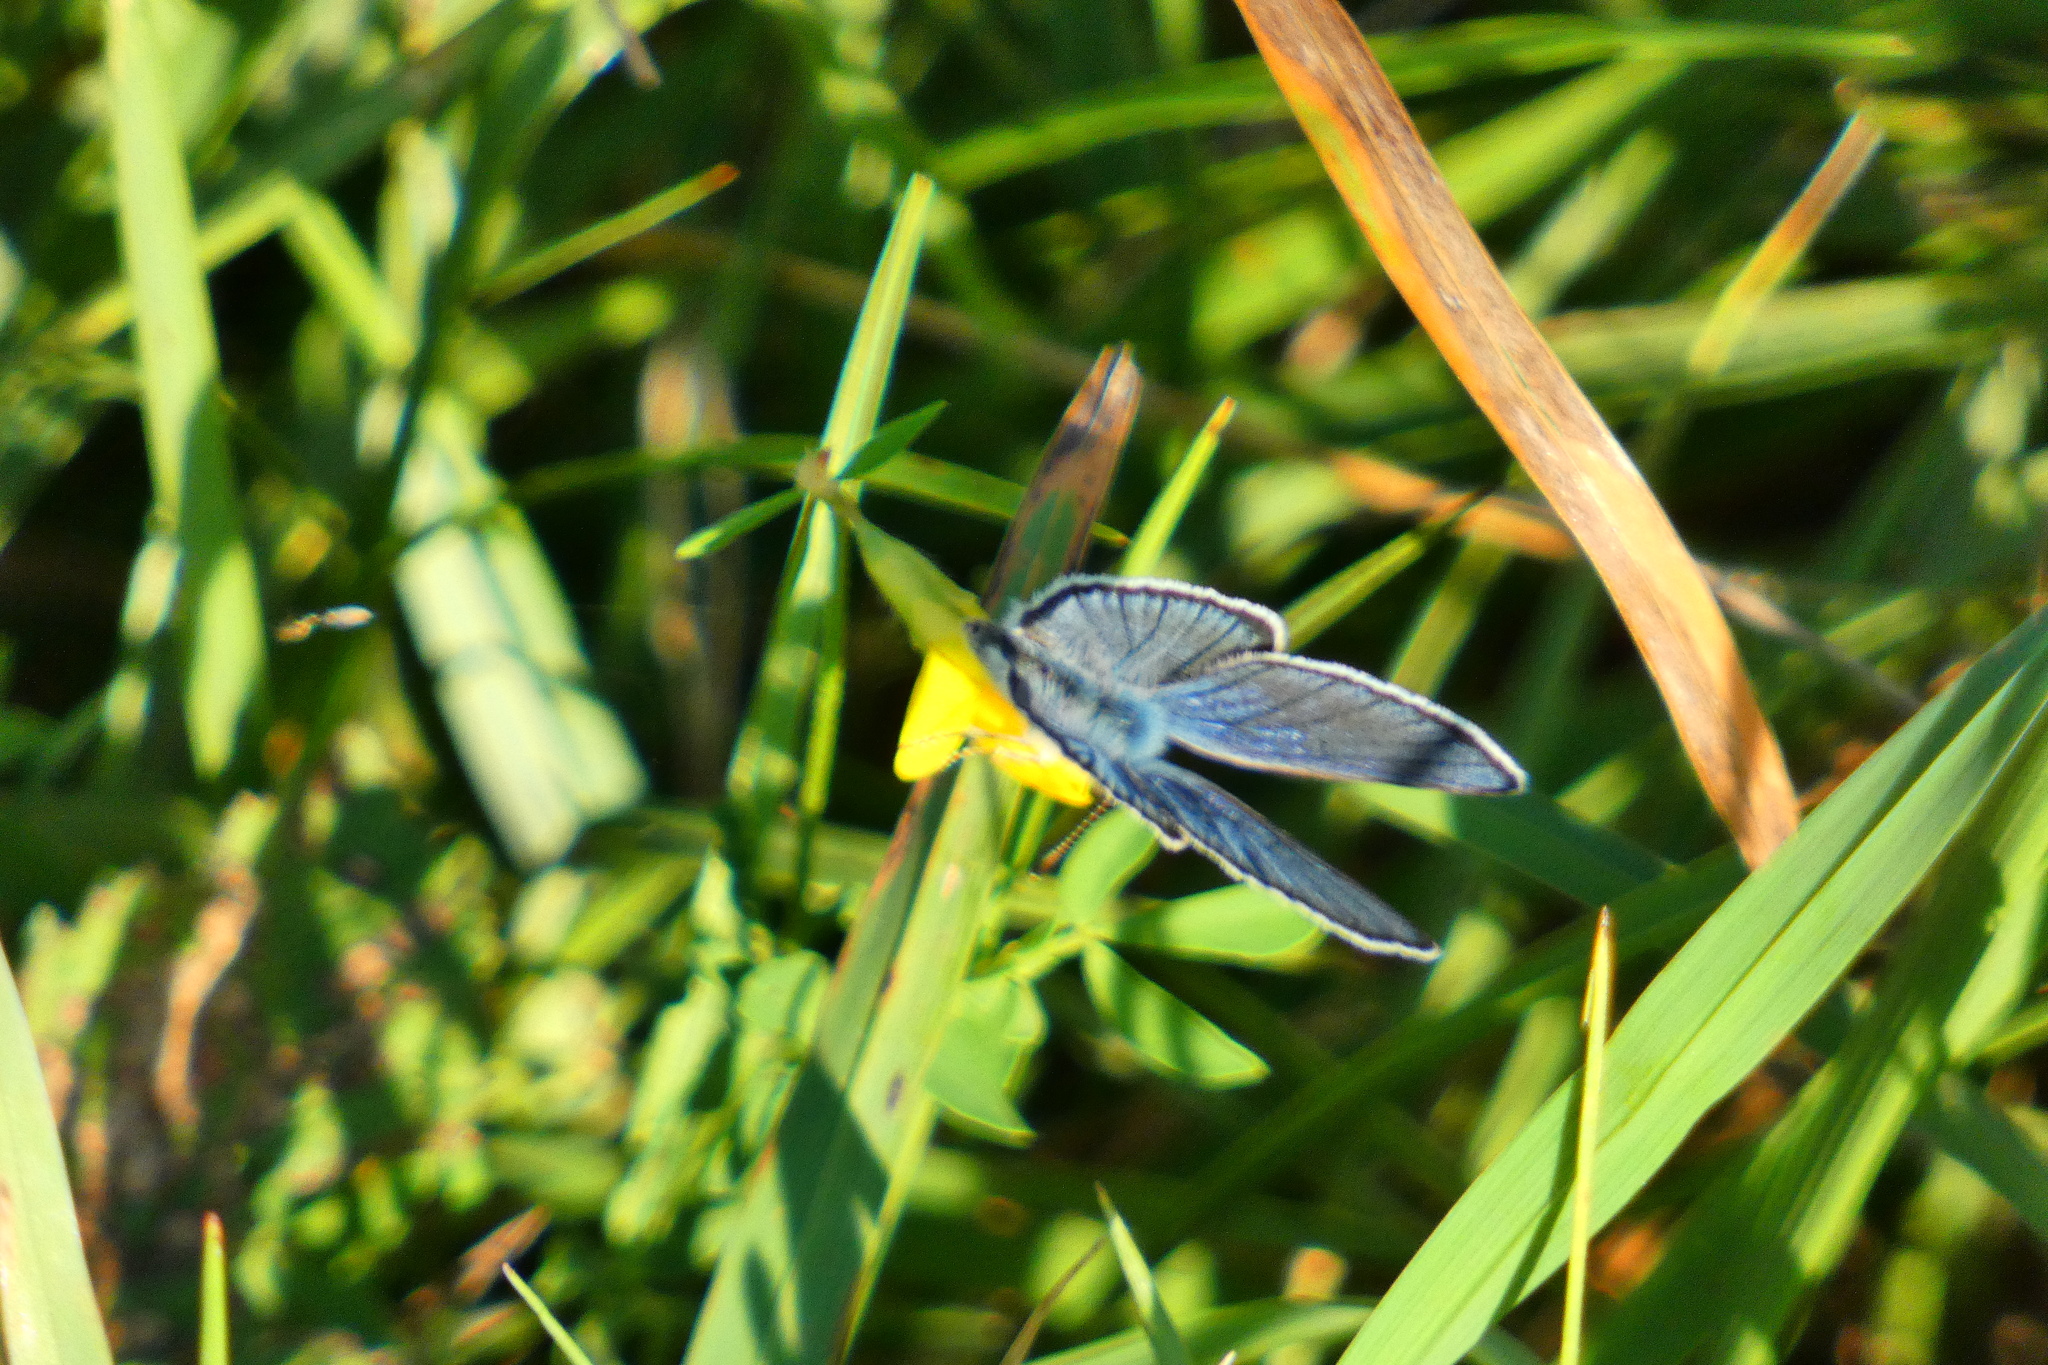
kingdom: Animalia
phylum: Arthropoda
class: Insecta
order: Lepidoptera
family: Lycaenidae
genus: Cyaniris
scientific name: Cyaniris semiargus
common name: Mazarine blue
